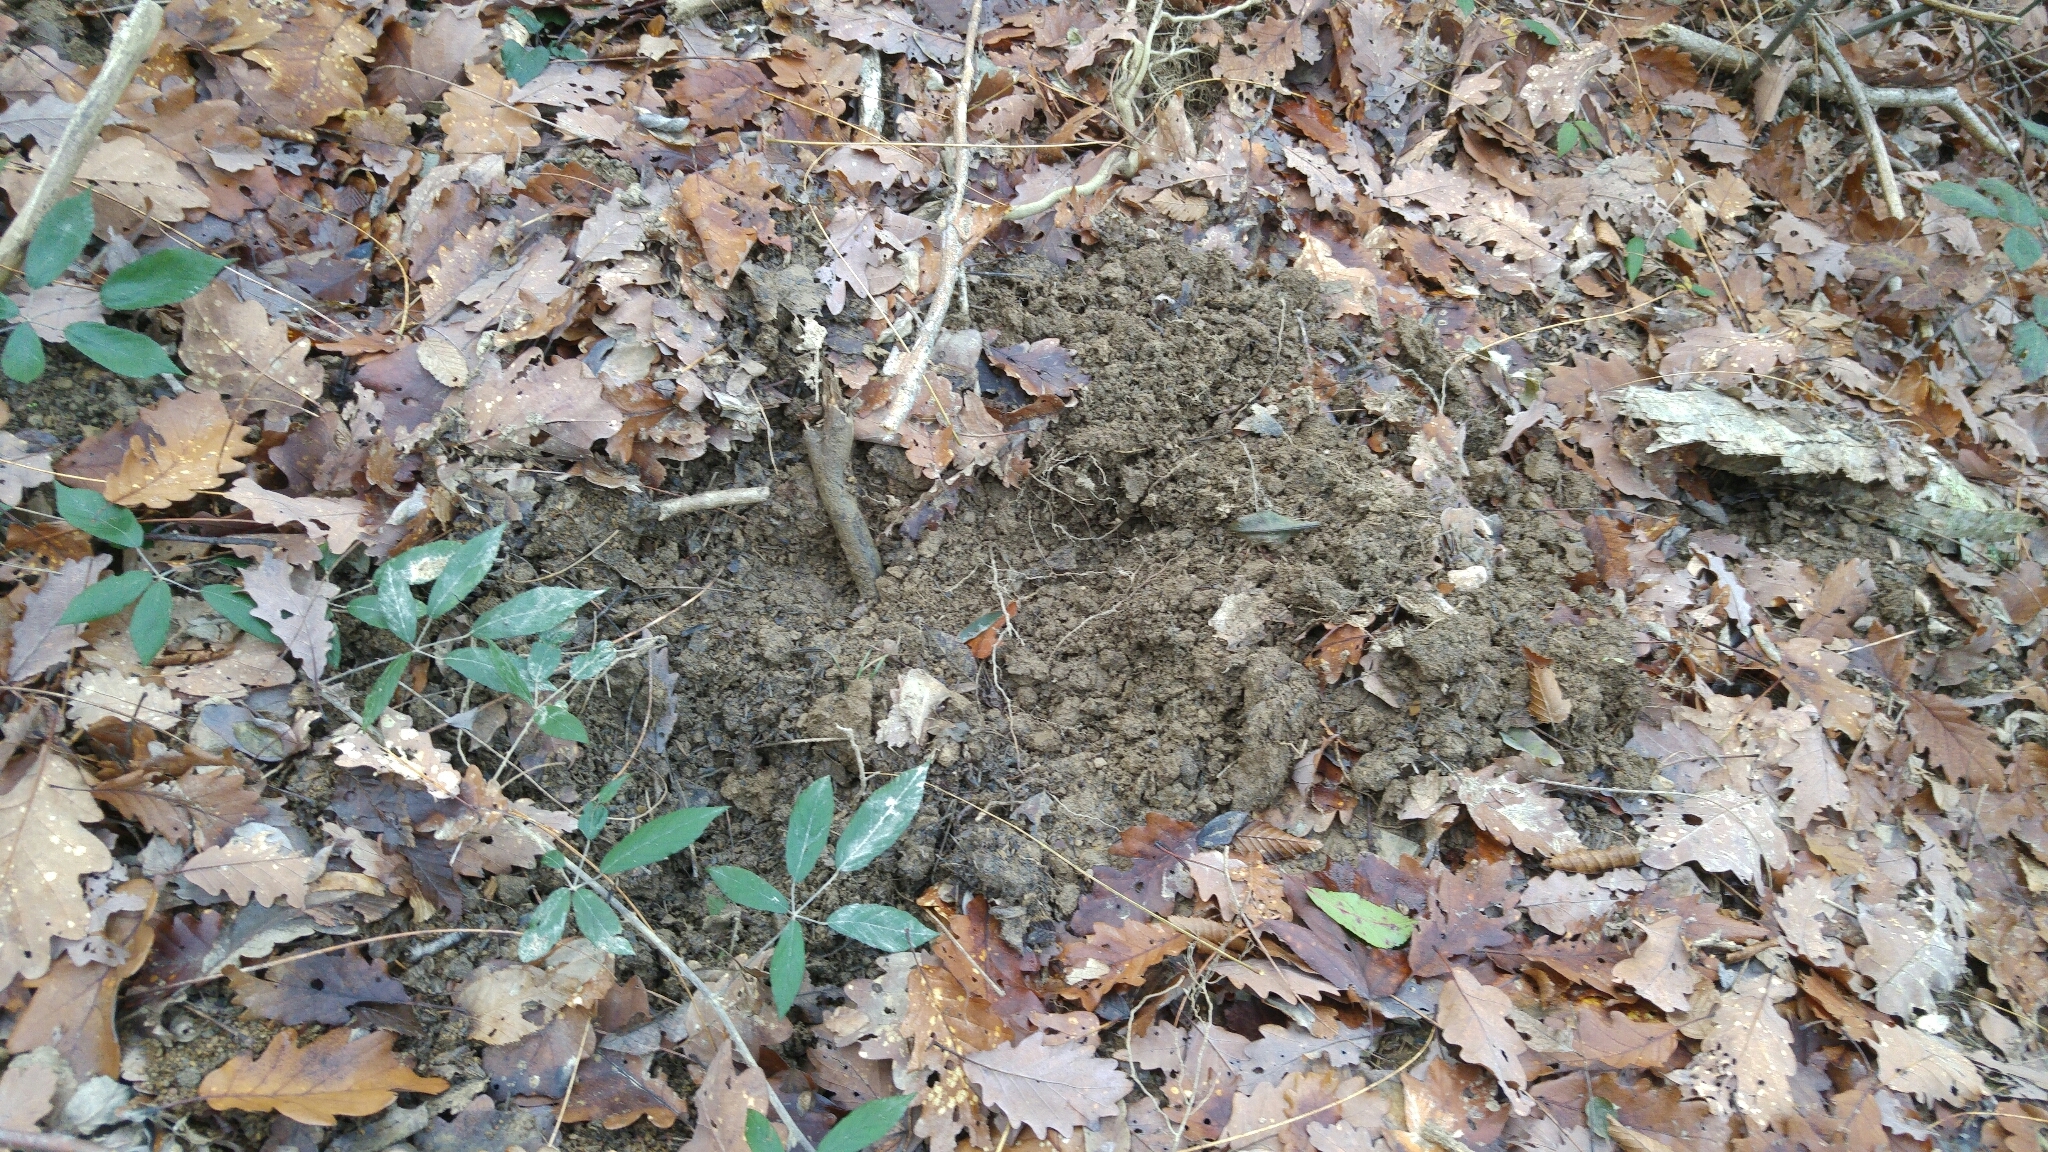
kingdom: Animalia
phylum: Chordata
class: Mammalia
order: Artiodactyla
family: Suidae
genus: Sus
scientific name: Sus scrofa
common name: Wild boar
